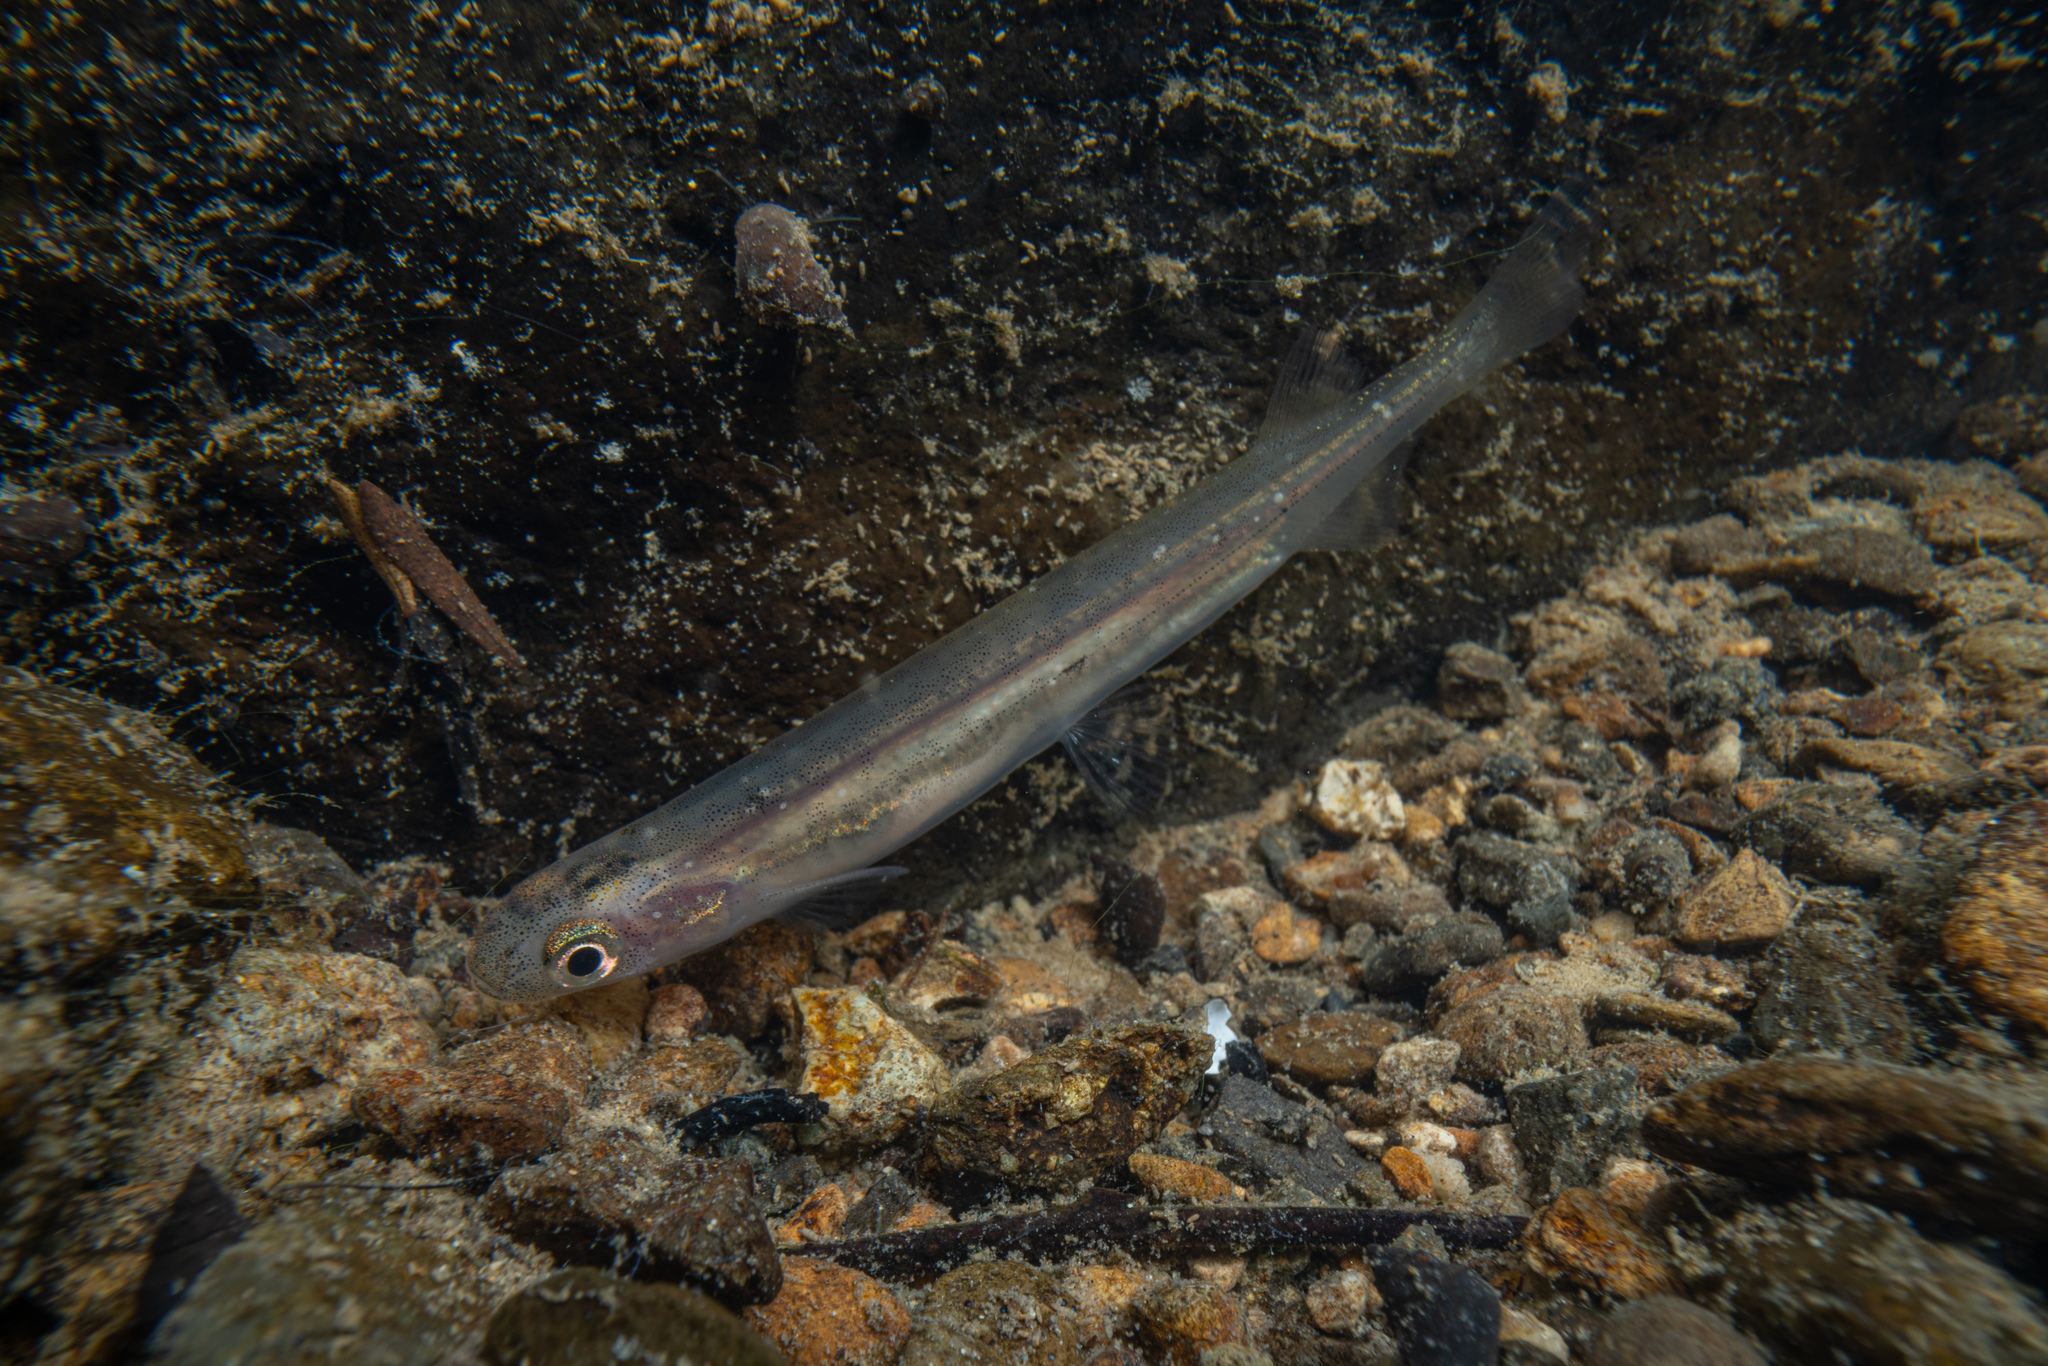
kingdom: Animalia
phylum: Chordata
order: Osmeriformes
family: Galaxiidae
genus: Galaxias
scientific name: Galaxias maculatus
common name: Common galaxias
